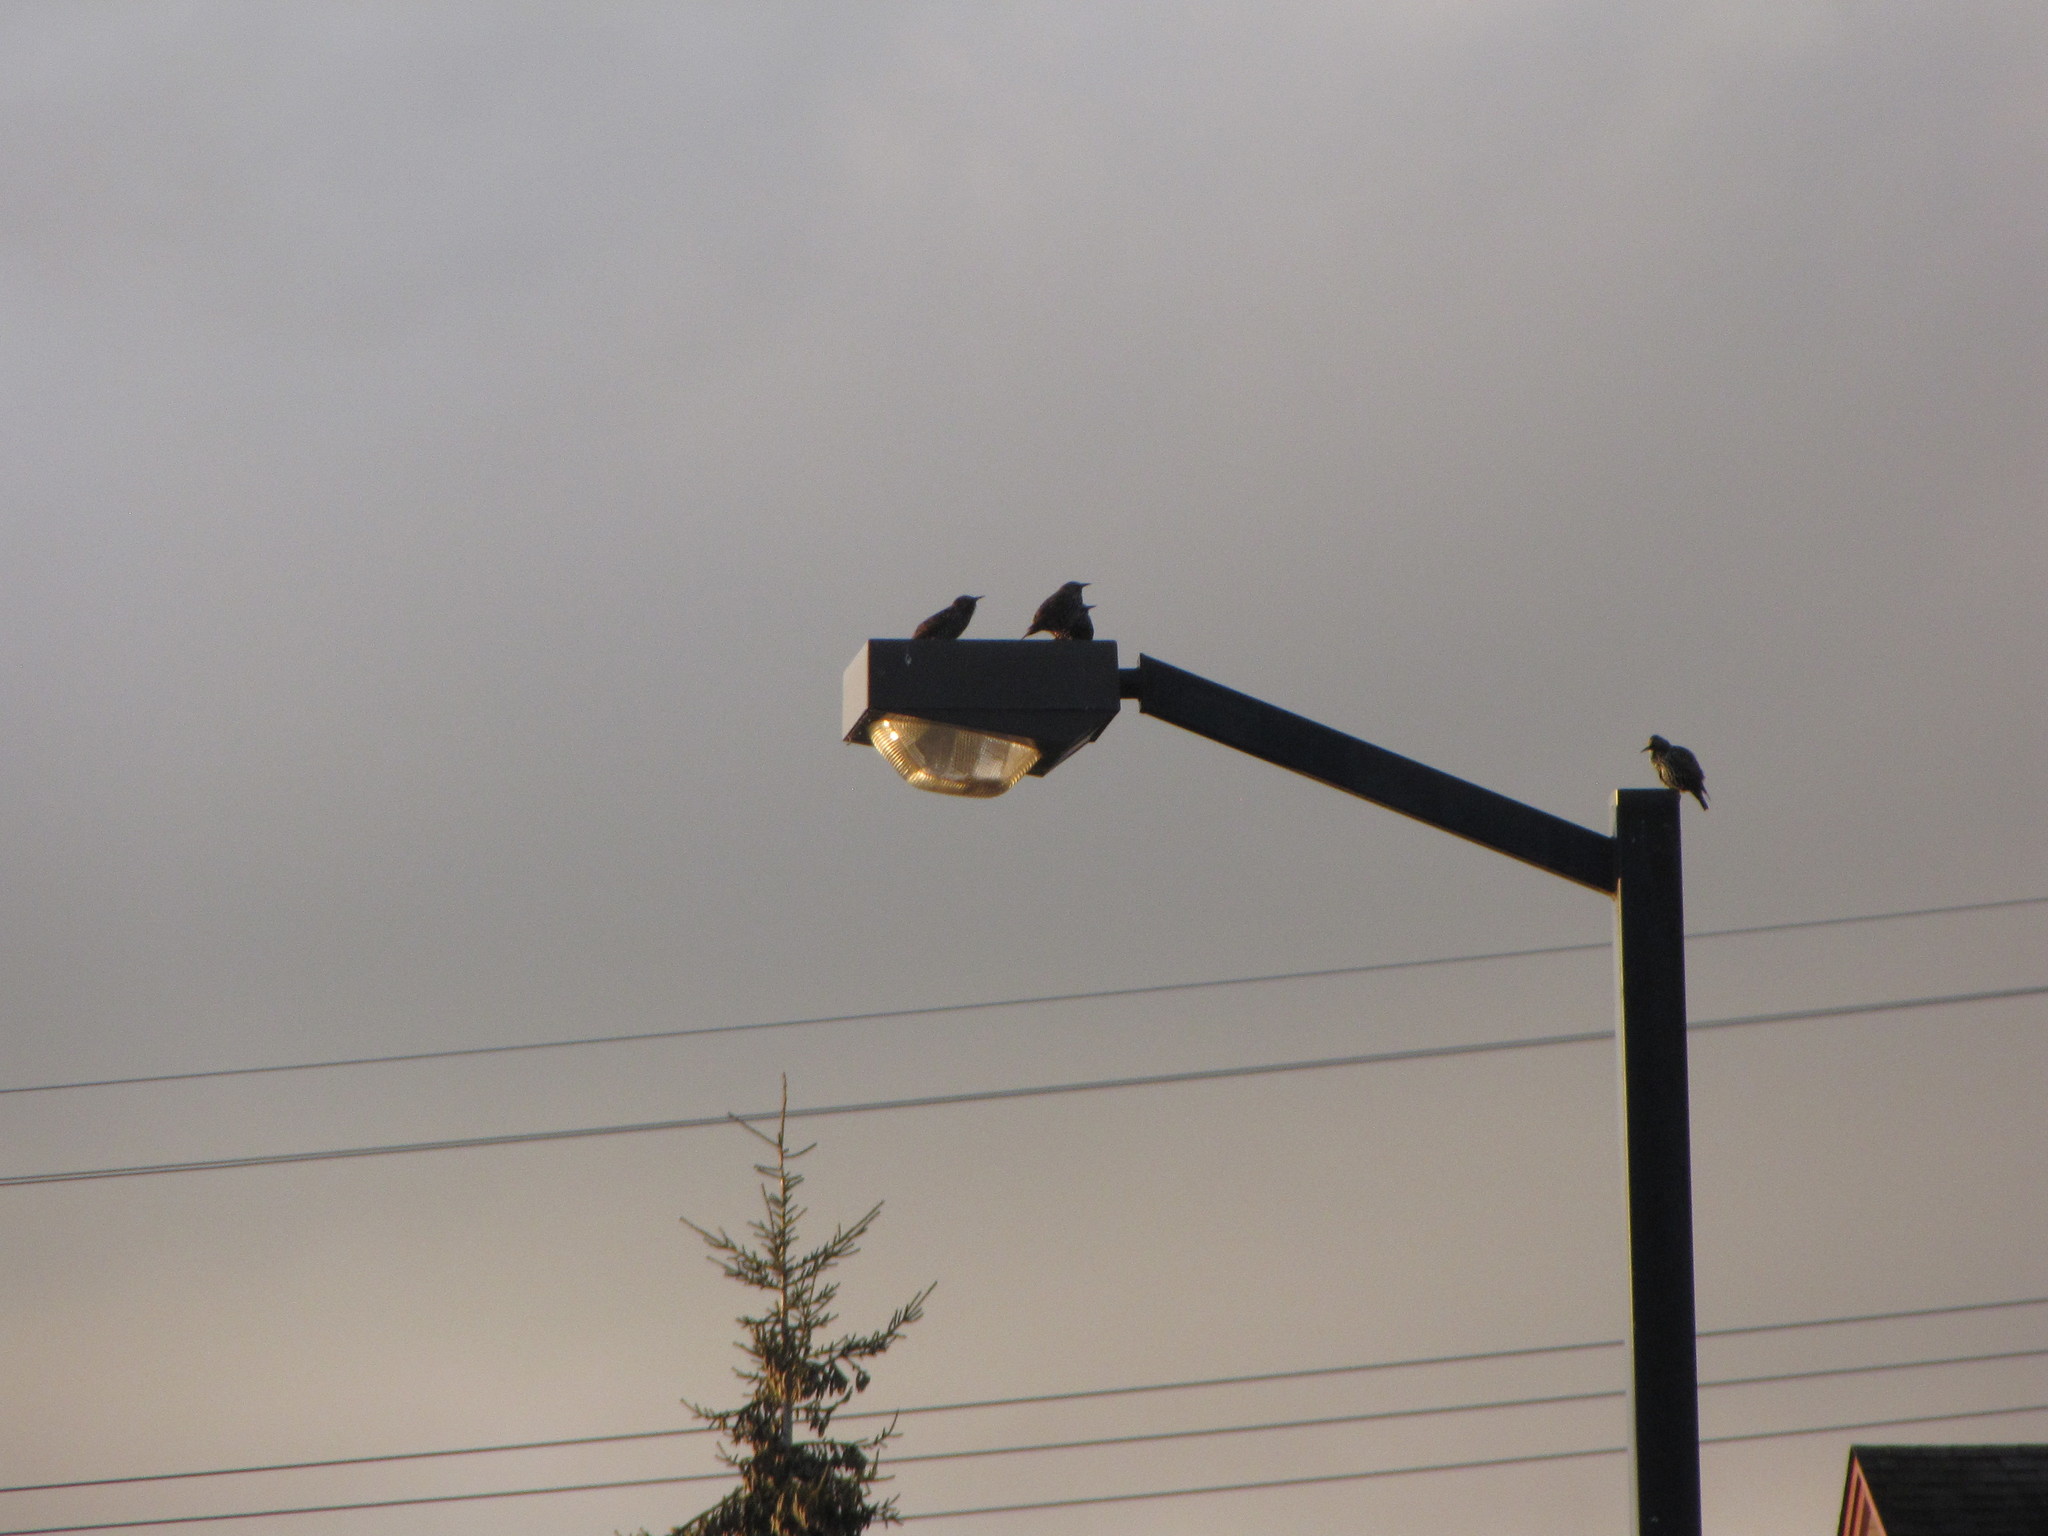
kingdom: Animalia
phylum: Chordata
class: Aves
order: Passeriformes
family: Sturnidae
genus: Sturnus
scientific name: Sturnus vulgaris
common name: Common starling
